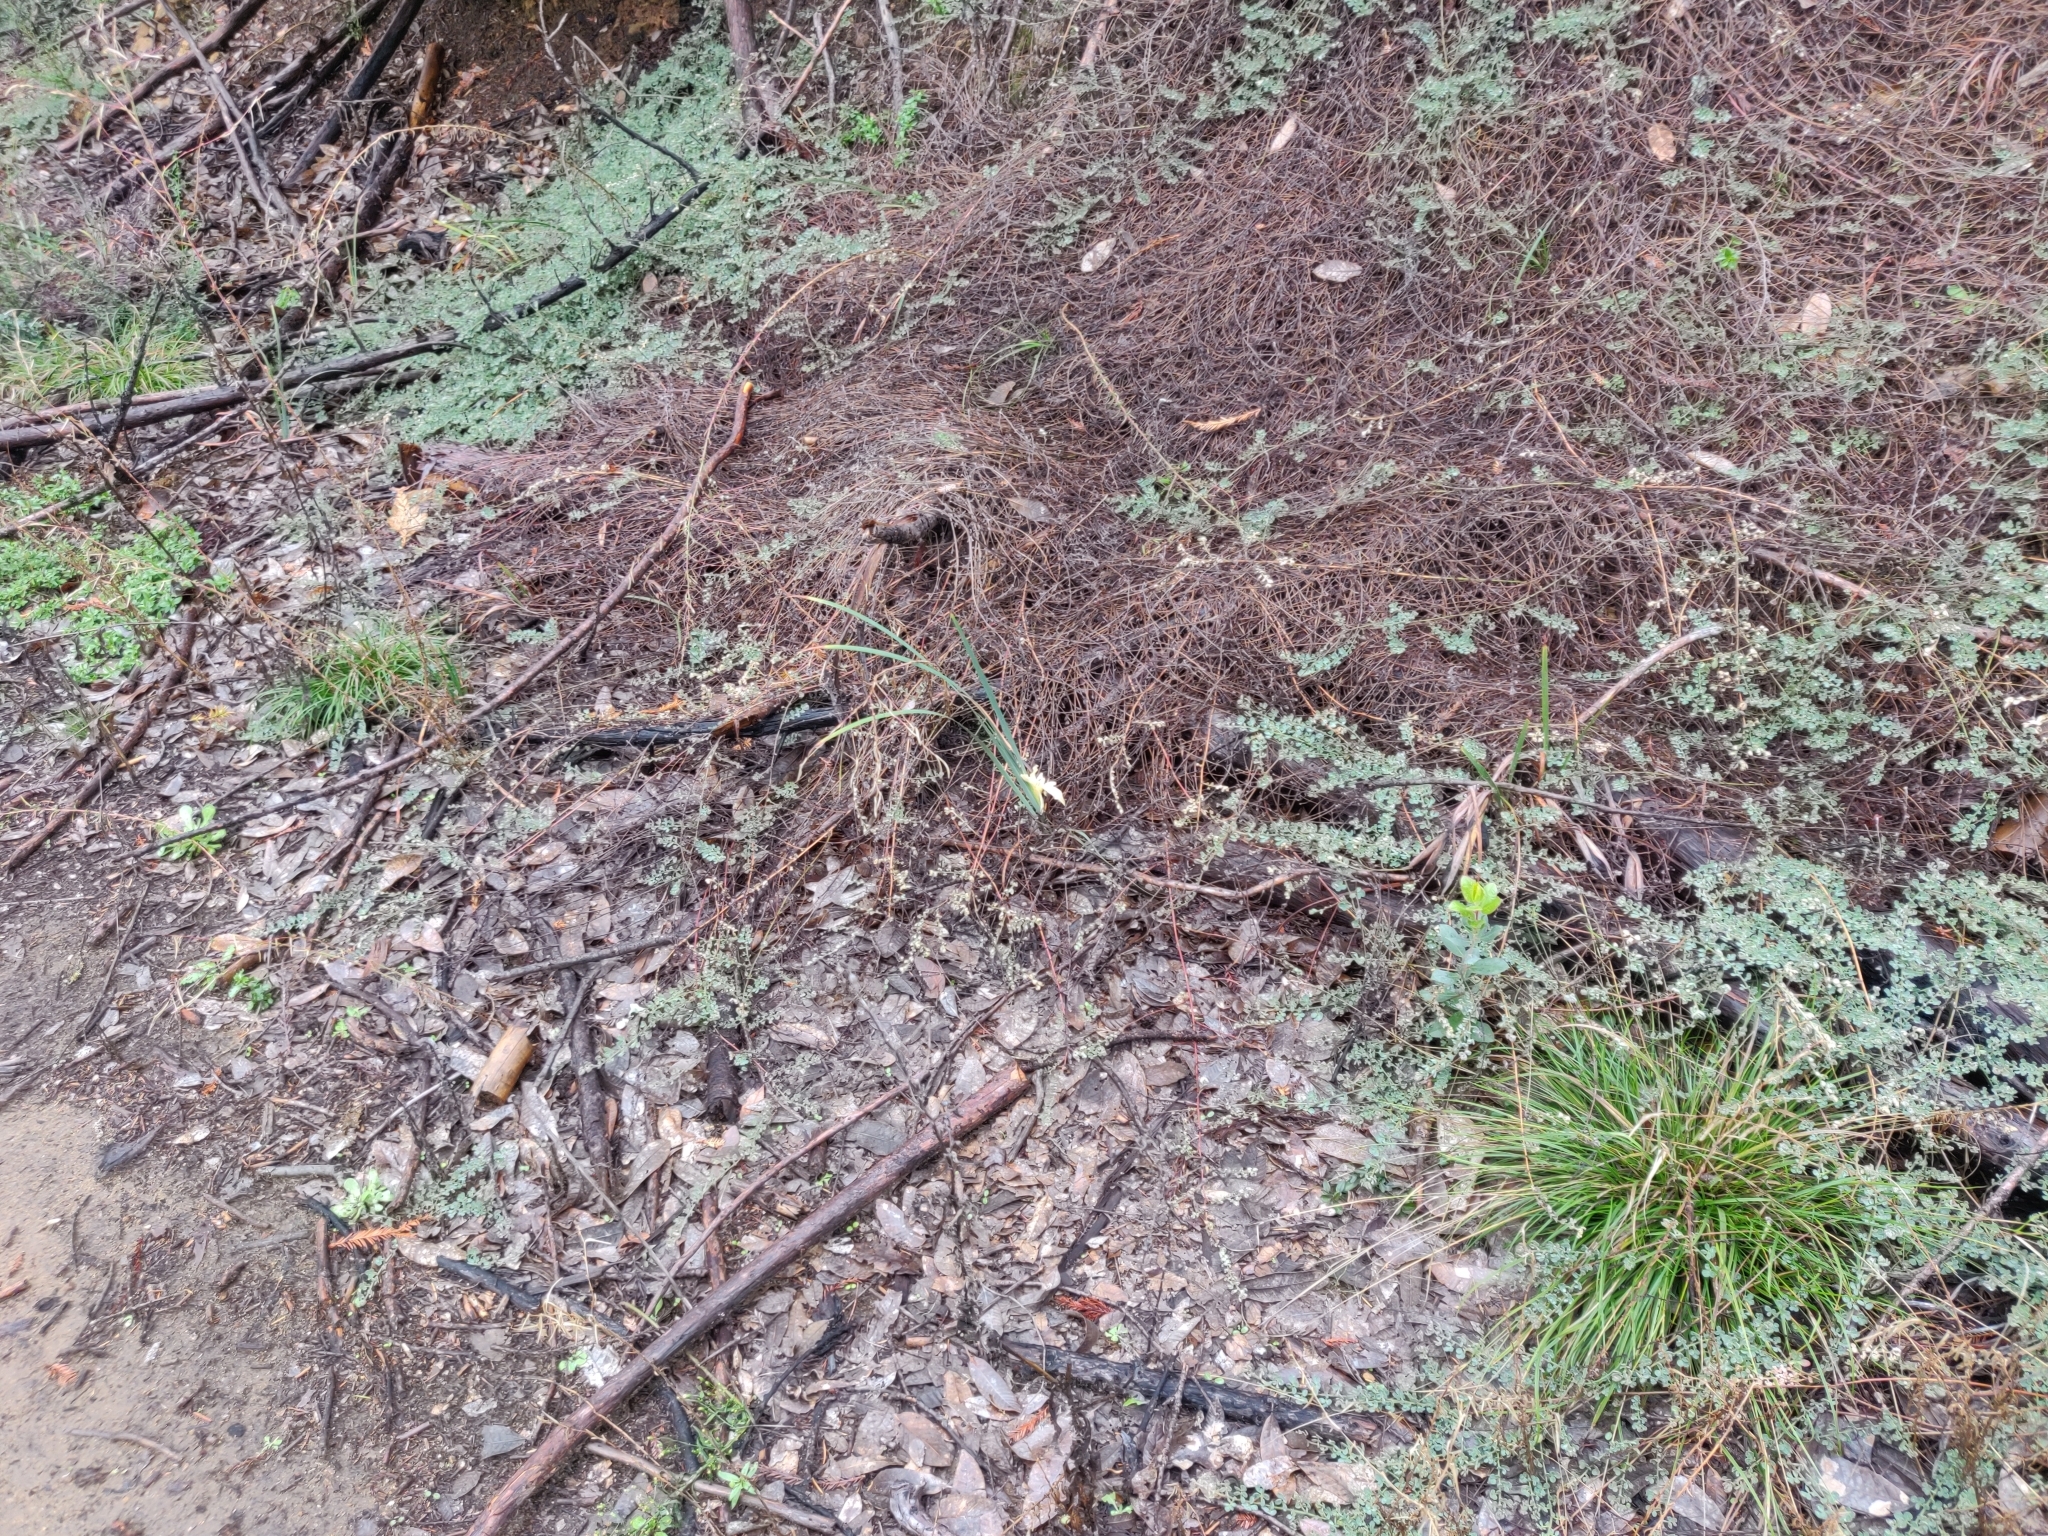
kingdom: Plantae
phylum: Tracheophyta
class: Liliopsida
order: Asparagales
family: Iridaceae
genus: Iris
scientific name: Iris fernaldii
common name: Fernald's iris
